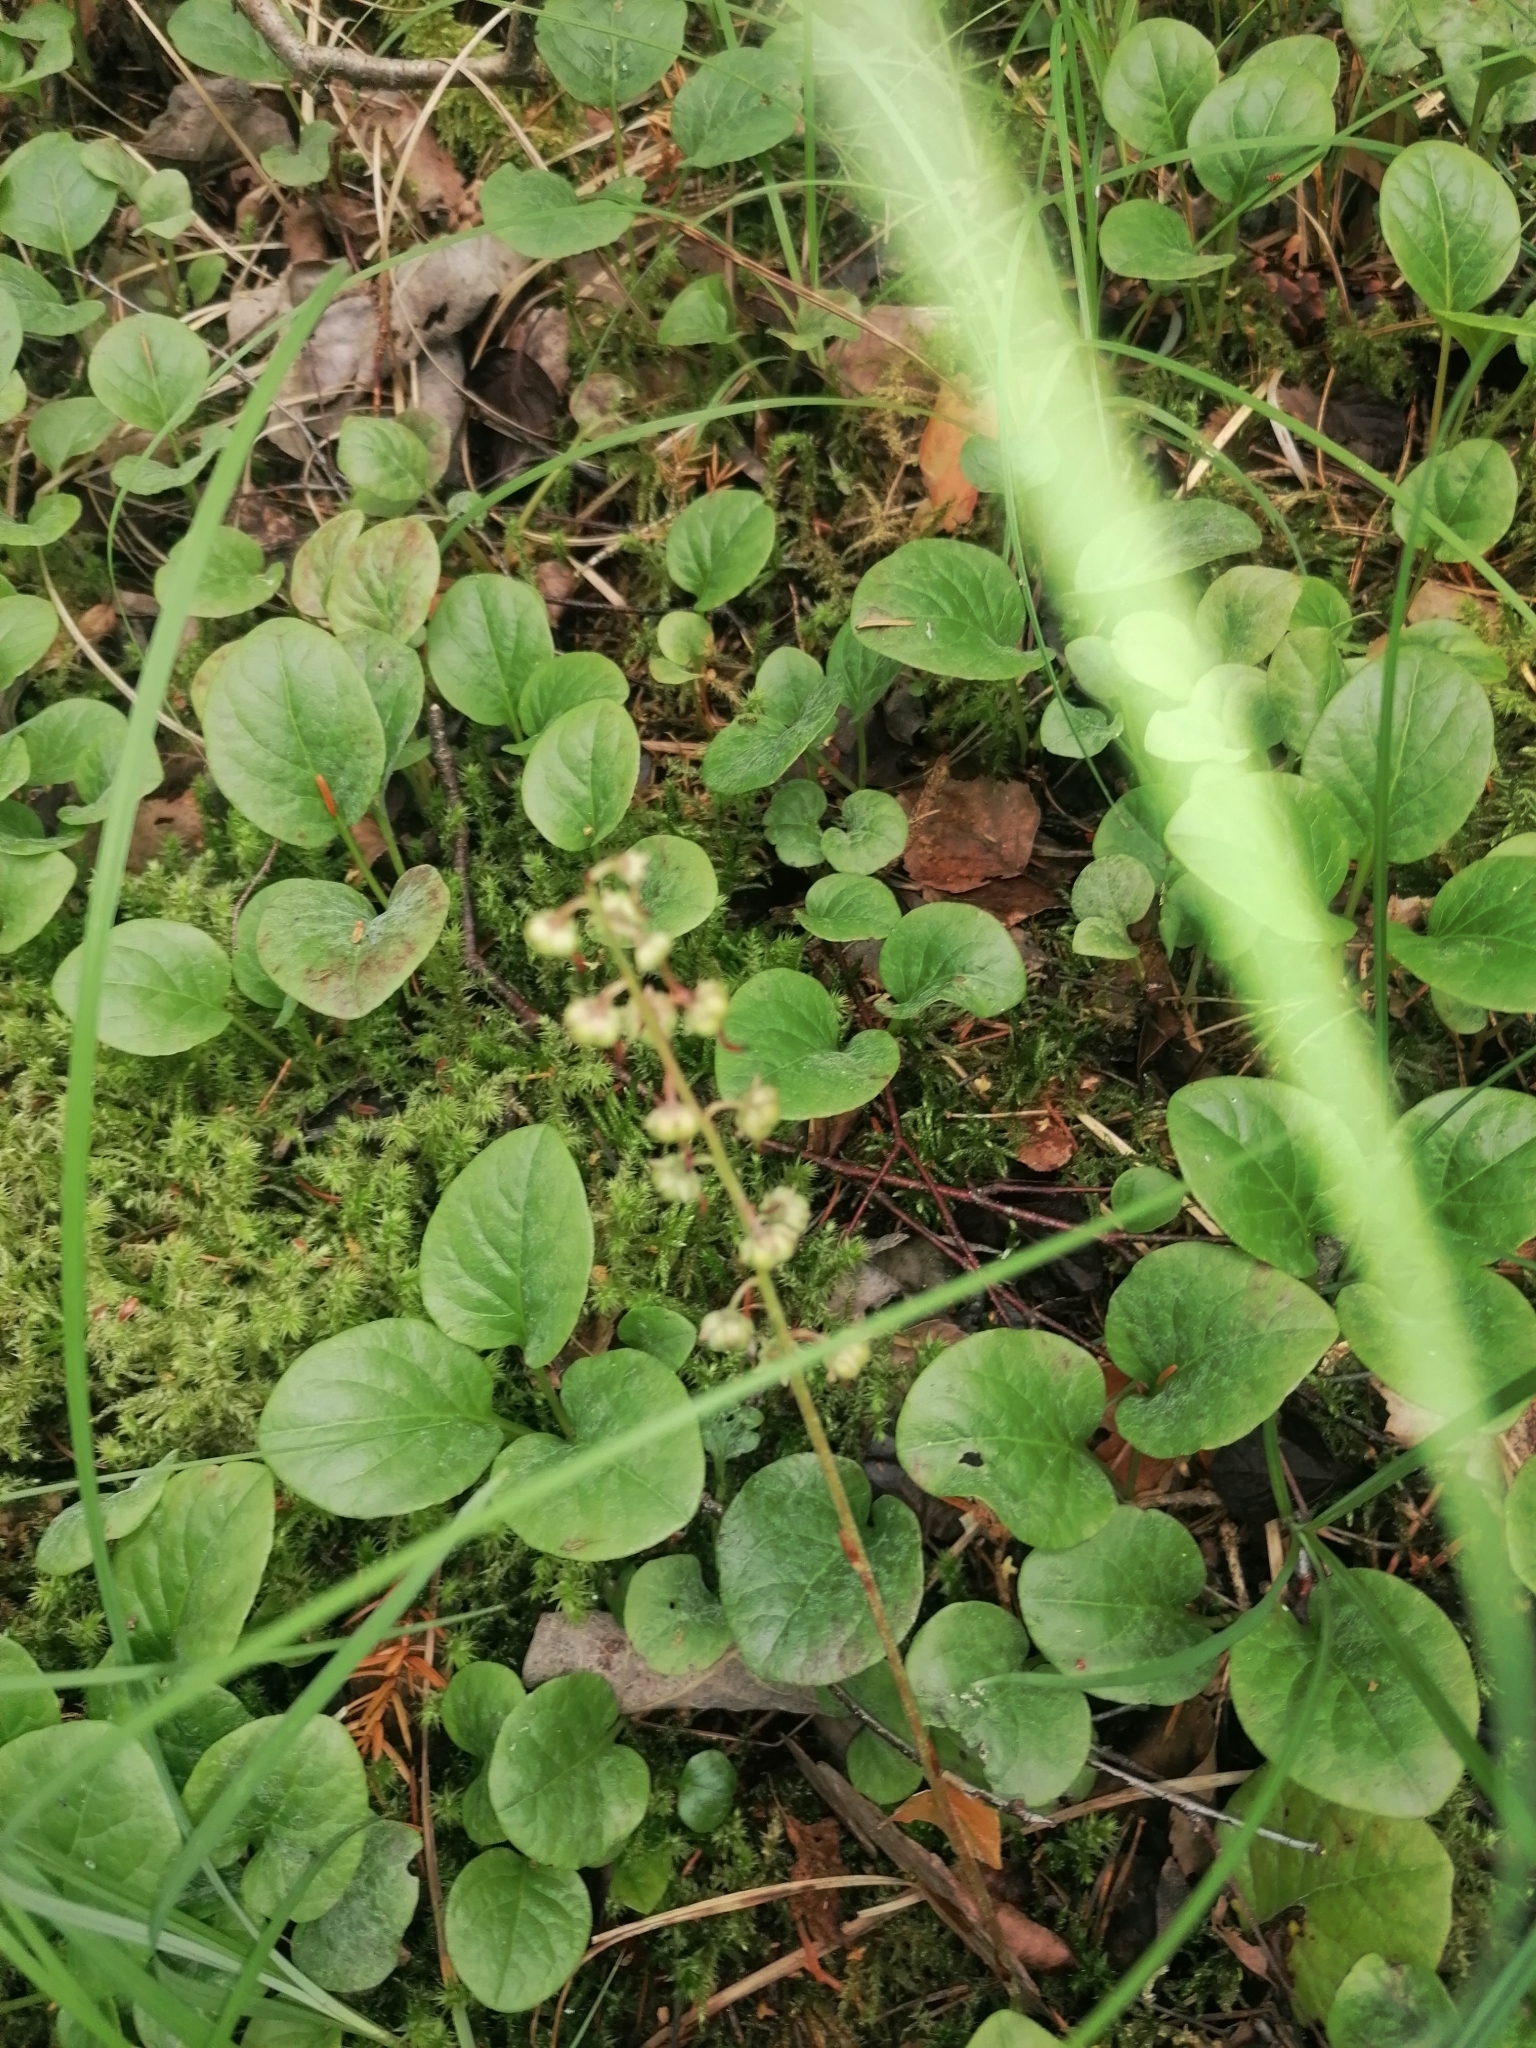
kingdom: Plantae
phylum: Tracheophyta
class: Magnoliopsida
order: Ericales
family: Ericaceae
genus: Pyrola
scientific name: Pyrola rotundifolia
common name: Round-leaved wintergreen
